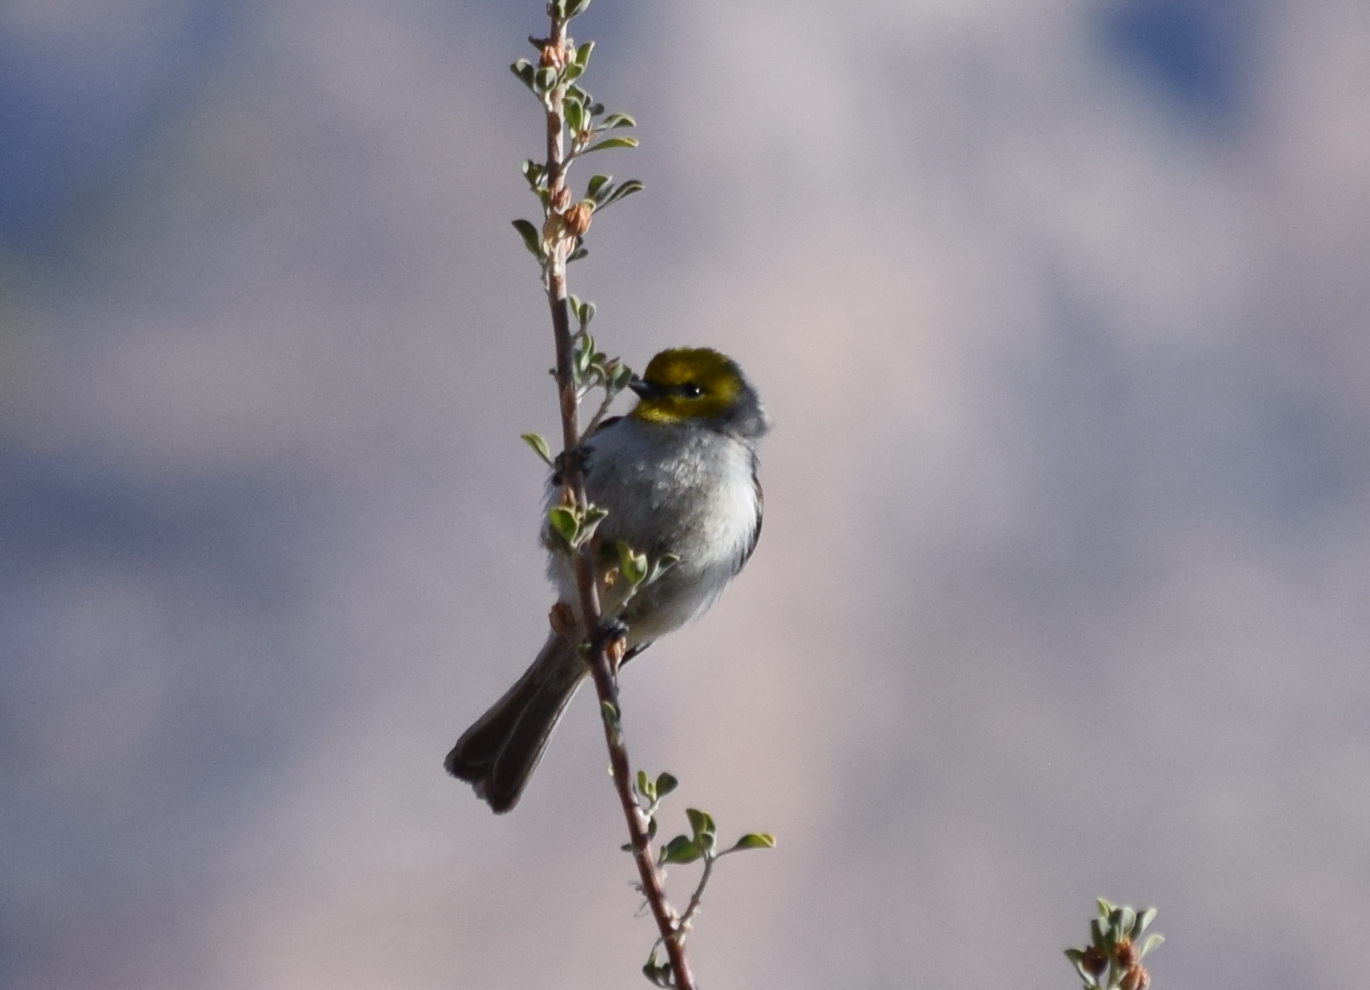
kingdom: Animalia
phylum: Chordata
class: Aves
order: Passeriformes
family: Remizidae
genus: Auriparus
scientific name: Auriparus flaviceps
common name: Verdin
